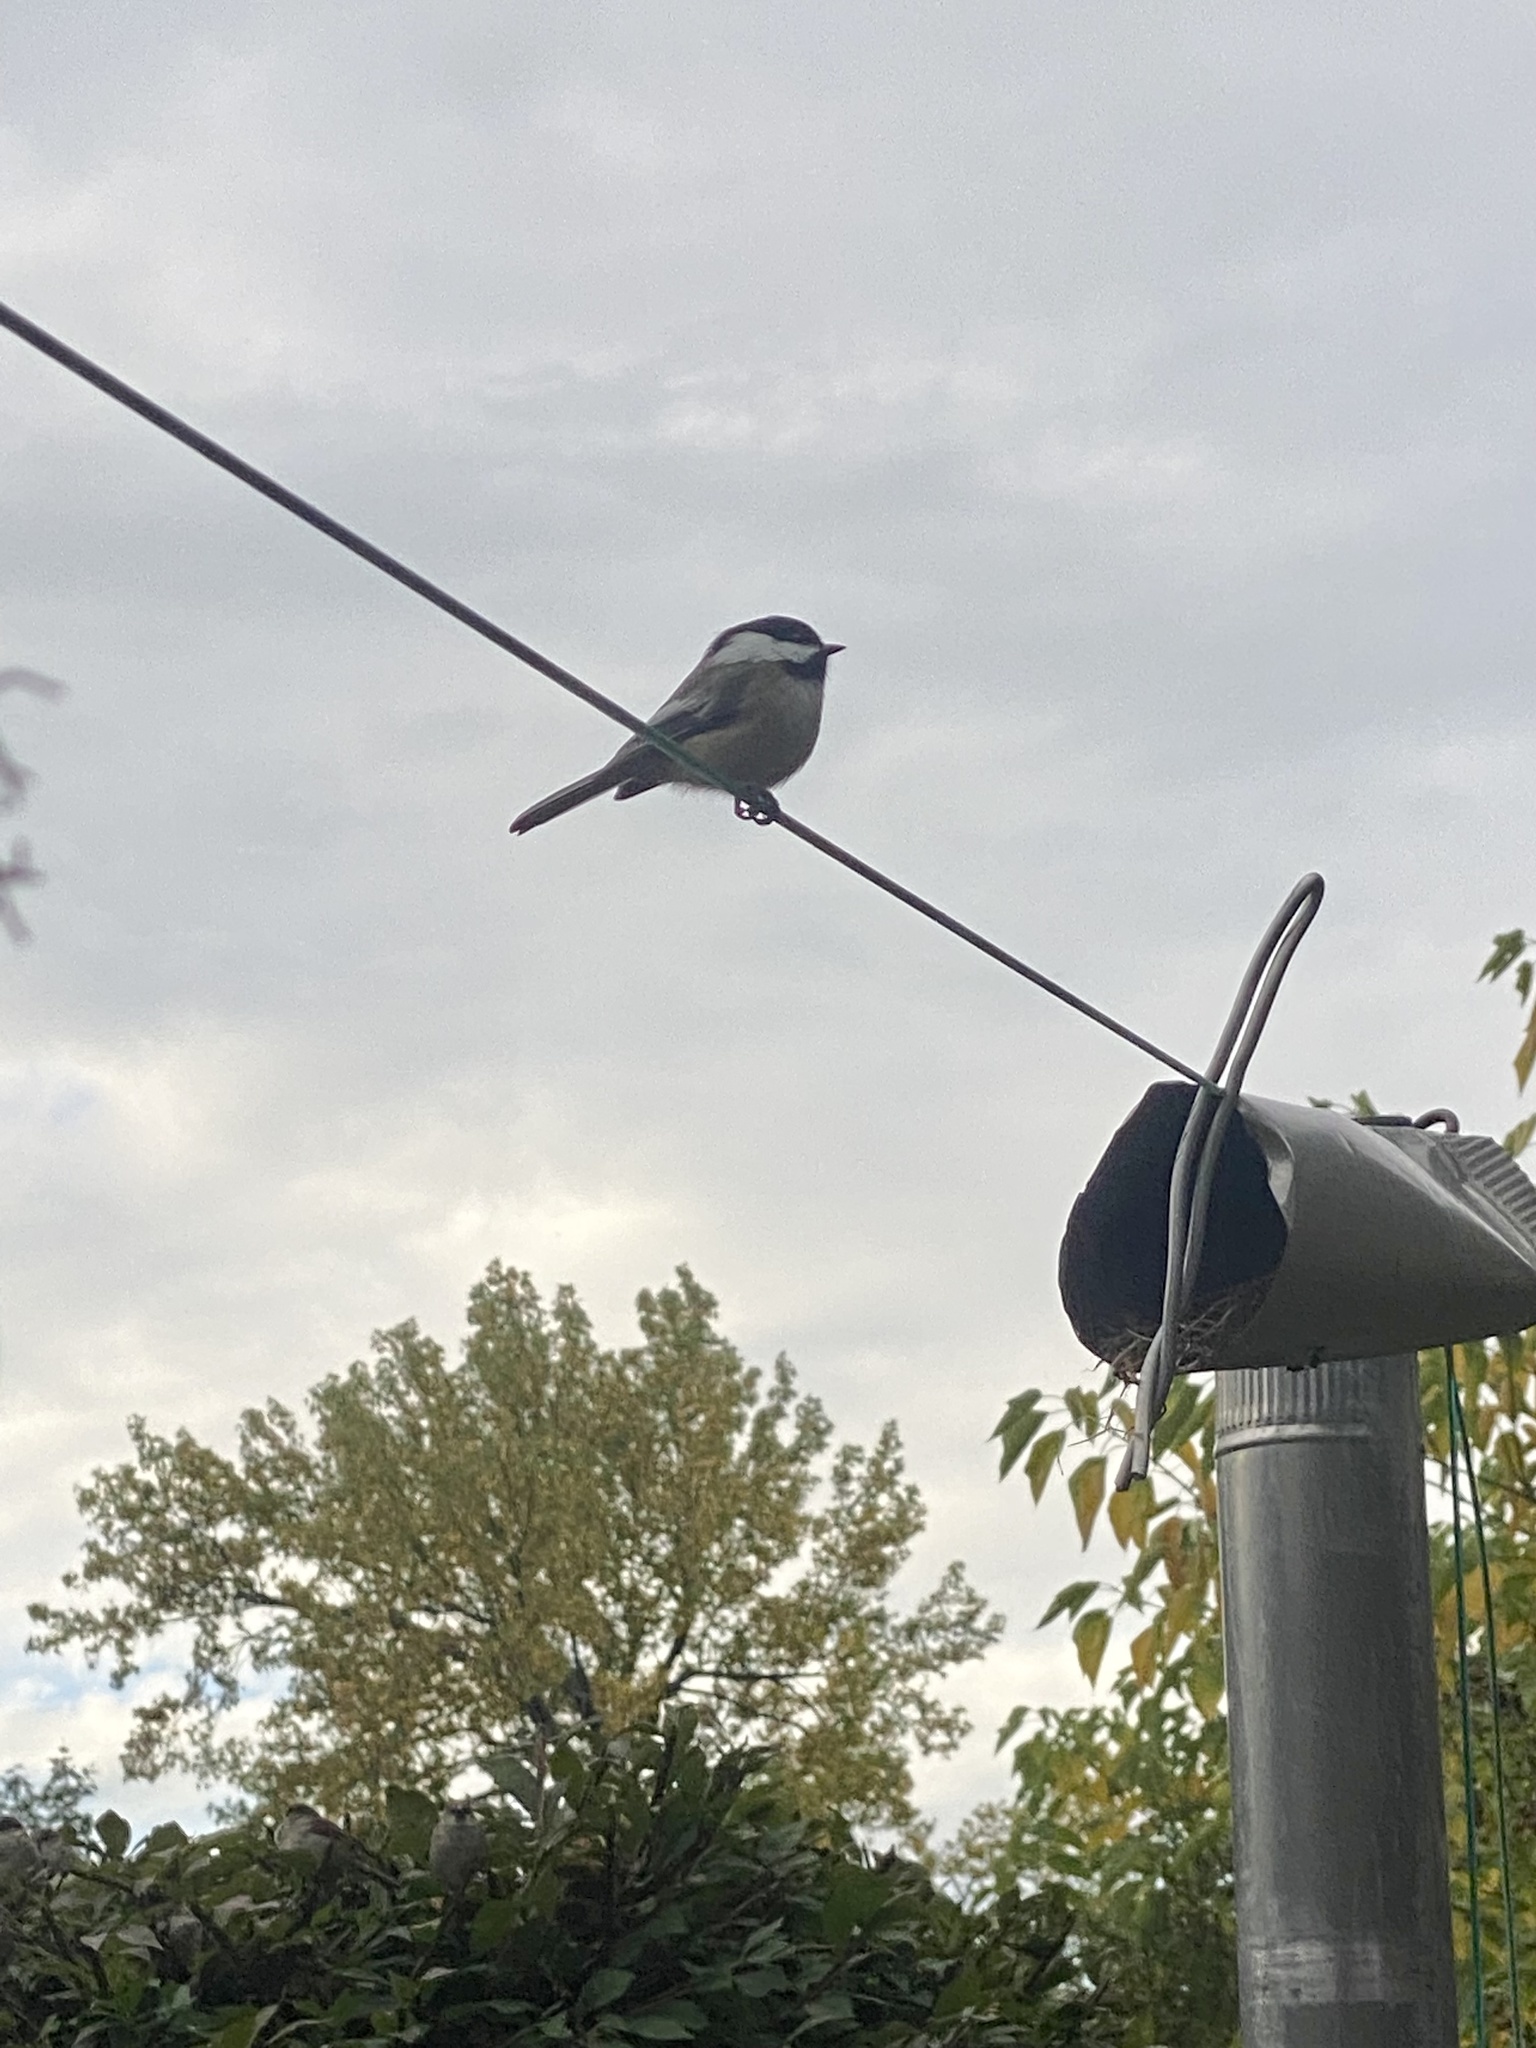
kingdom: Animalia
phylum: Chordata
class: Aves
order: Passeriformes
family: Paridae
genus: Poecile
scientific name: Poecile atricapillus
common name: Black-capped chickadee
